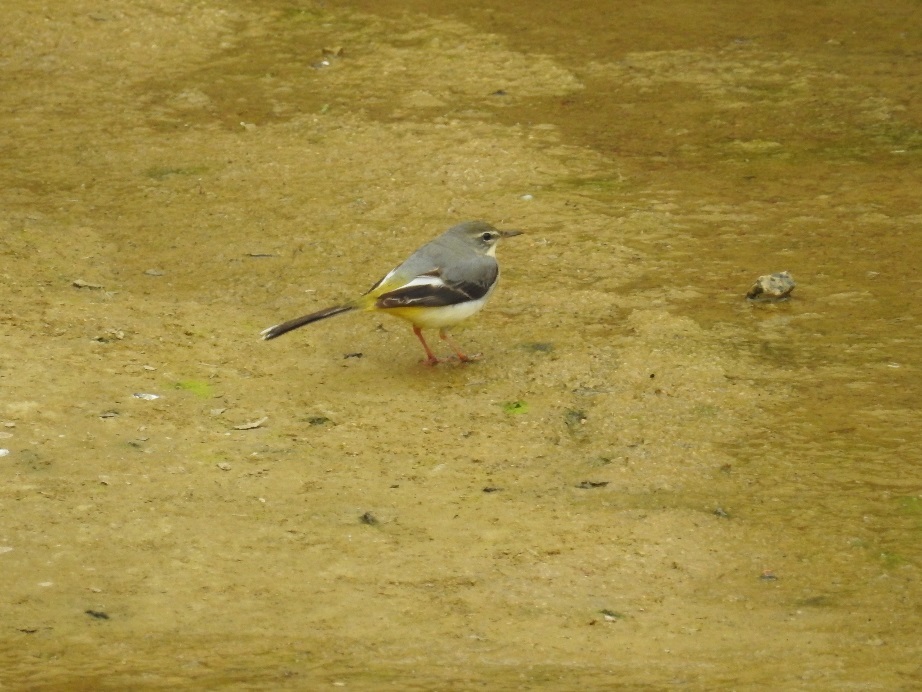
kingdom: Animalia
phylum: Chordata
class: Aves
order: Passeriformes
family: Motacillidae
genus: Motacilla
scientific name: Motacilla cinerea
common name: Grey wagtail
